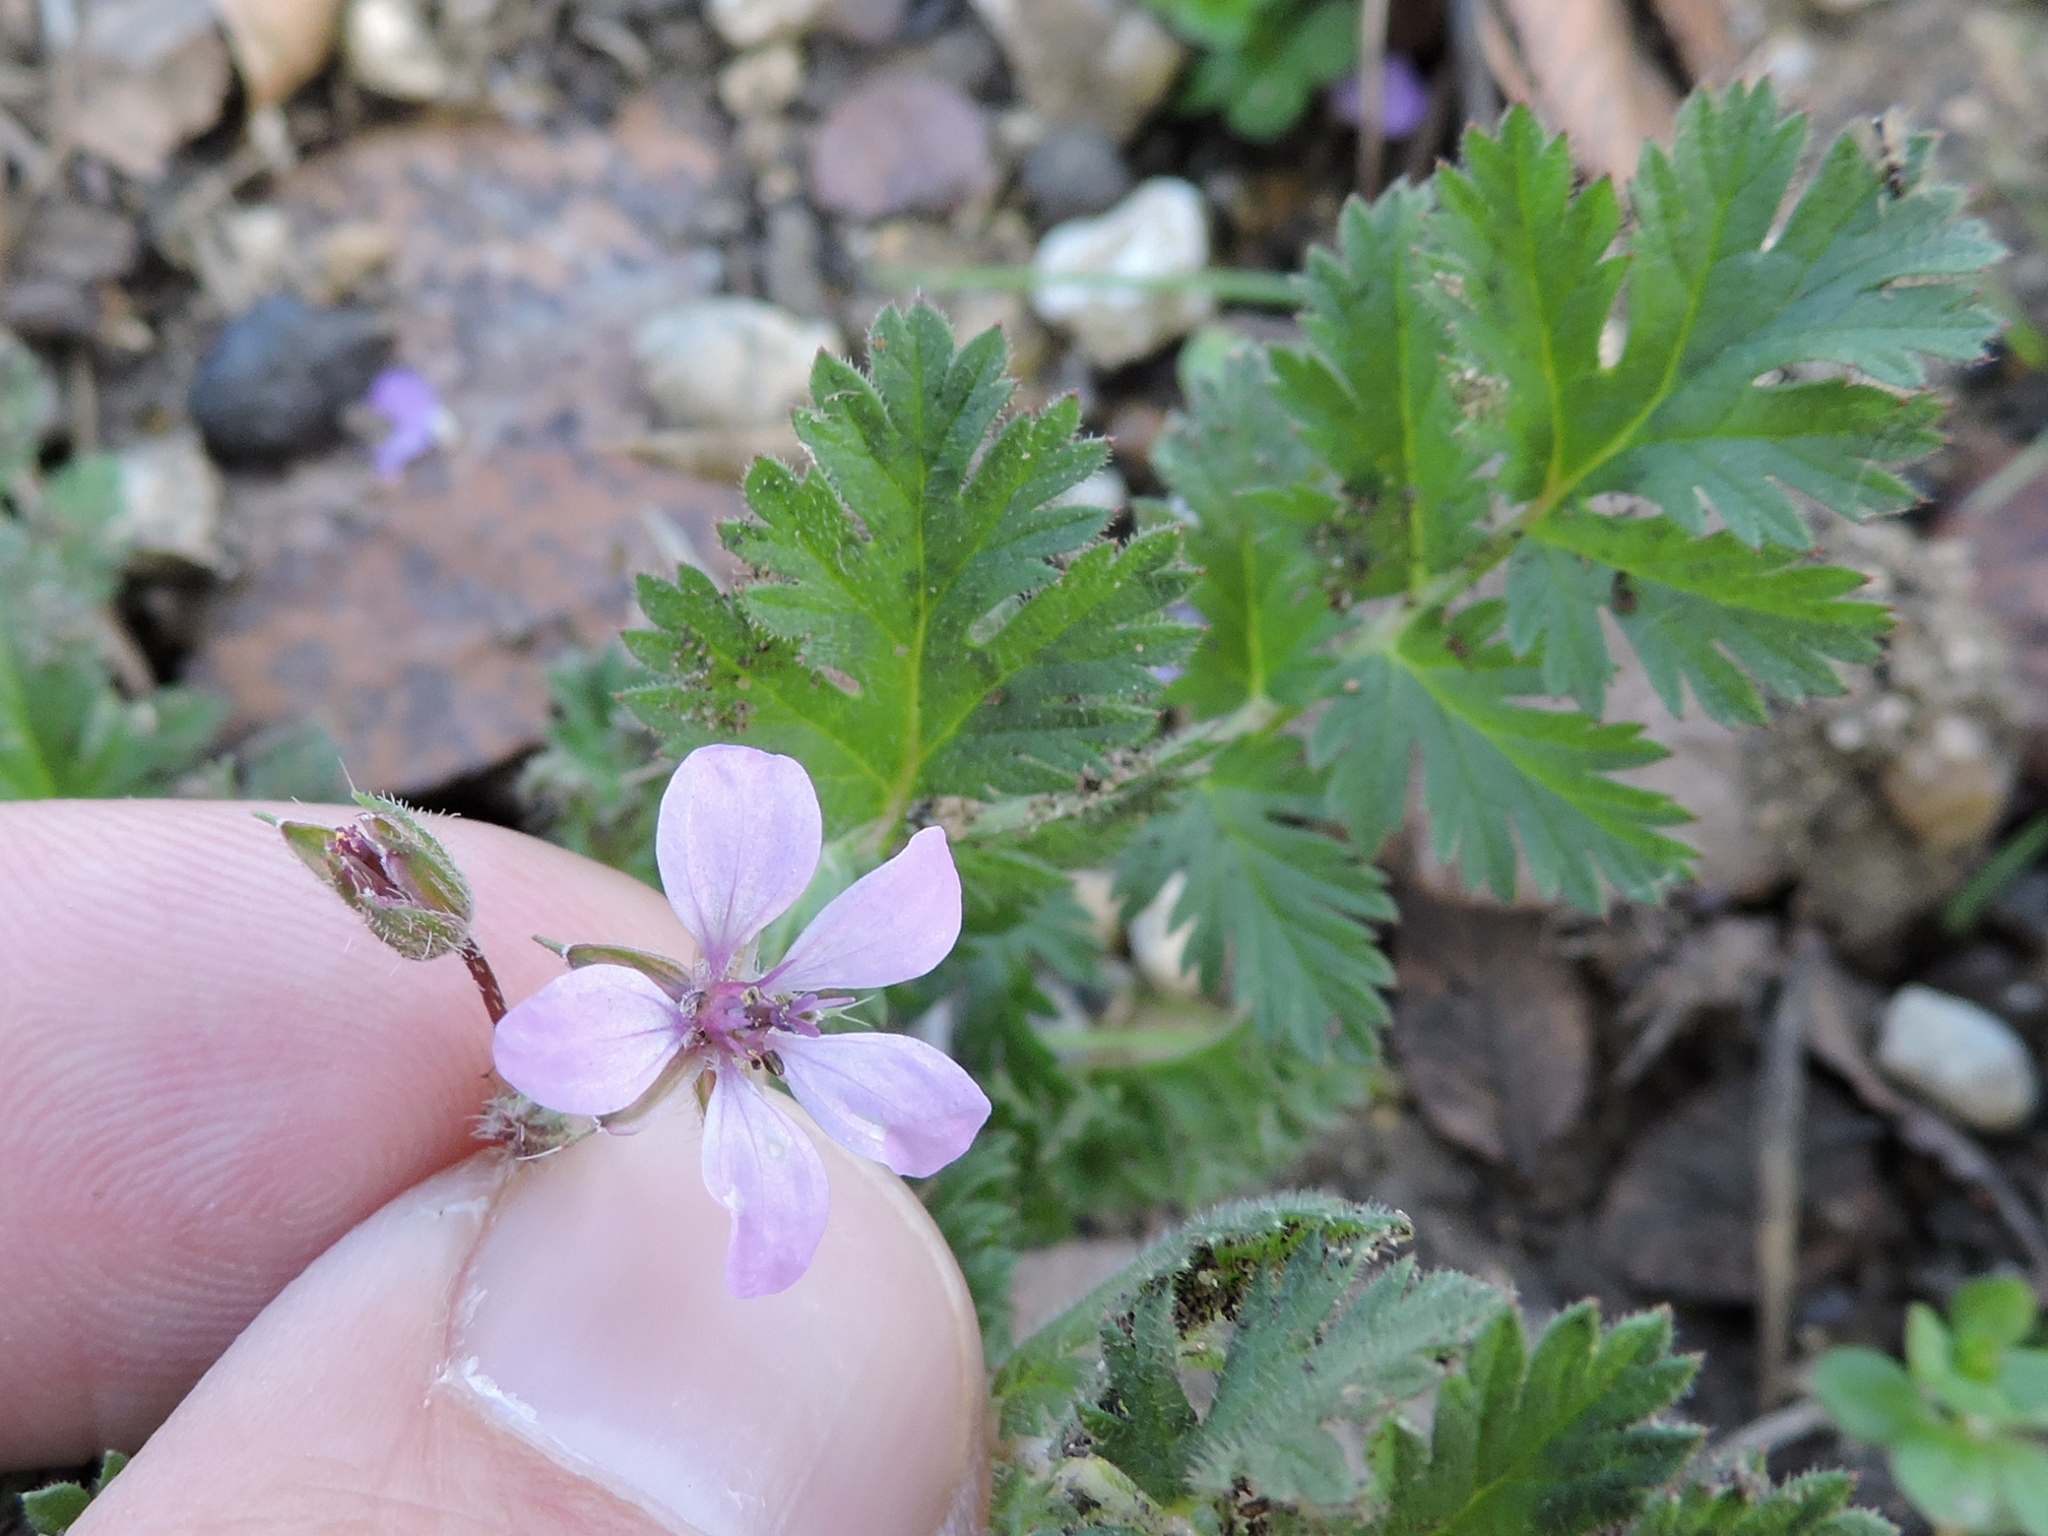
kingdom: Plantae
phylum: Tracheophyta
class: Magnoliopsida
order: Geraniales
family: Geraniaceae
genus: Erodium
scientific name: Erodium cicutarium
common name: Common stork's-bill
